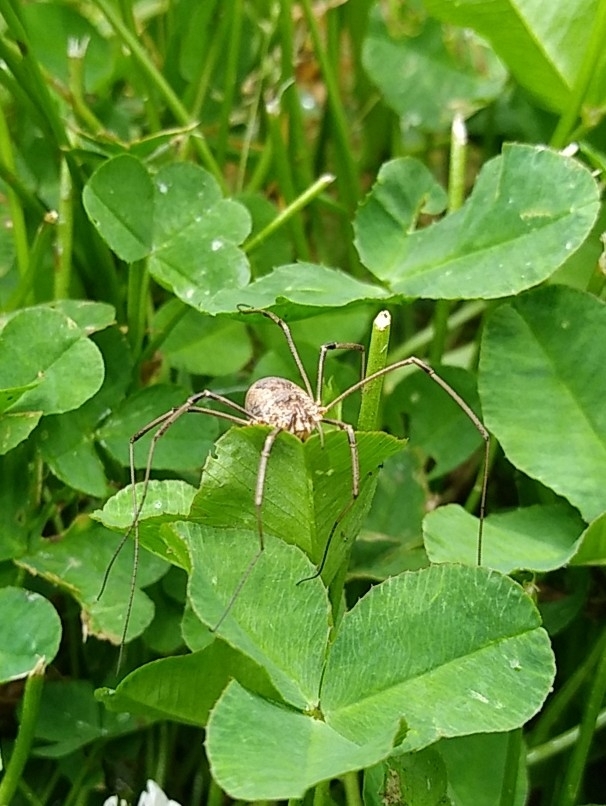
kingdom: Animalia
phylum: Arthropoda
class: Arachnida
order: Opiliones
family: Phalangiidae
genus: Phalangium
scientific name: Phalangium opilio
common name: Daddy longleg
